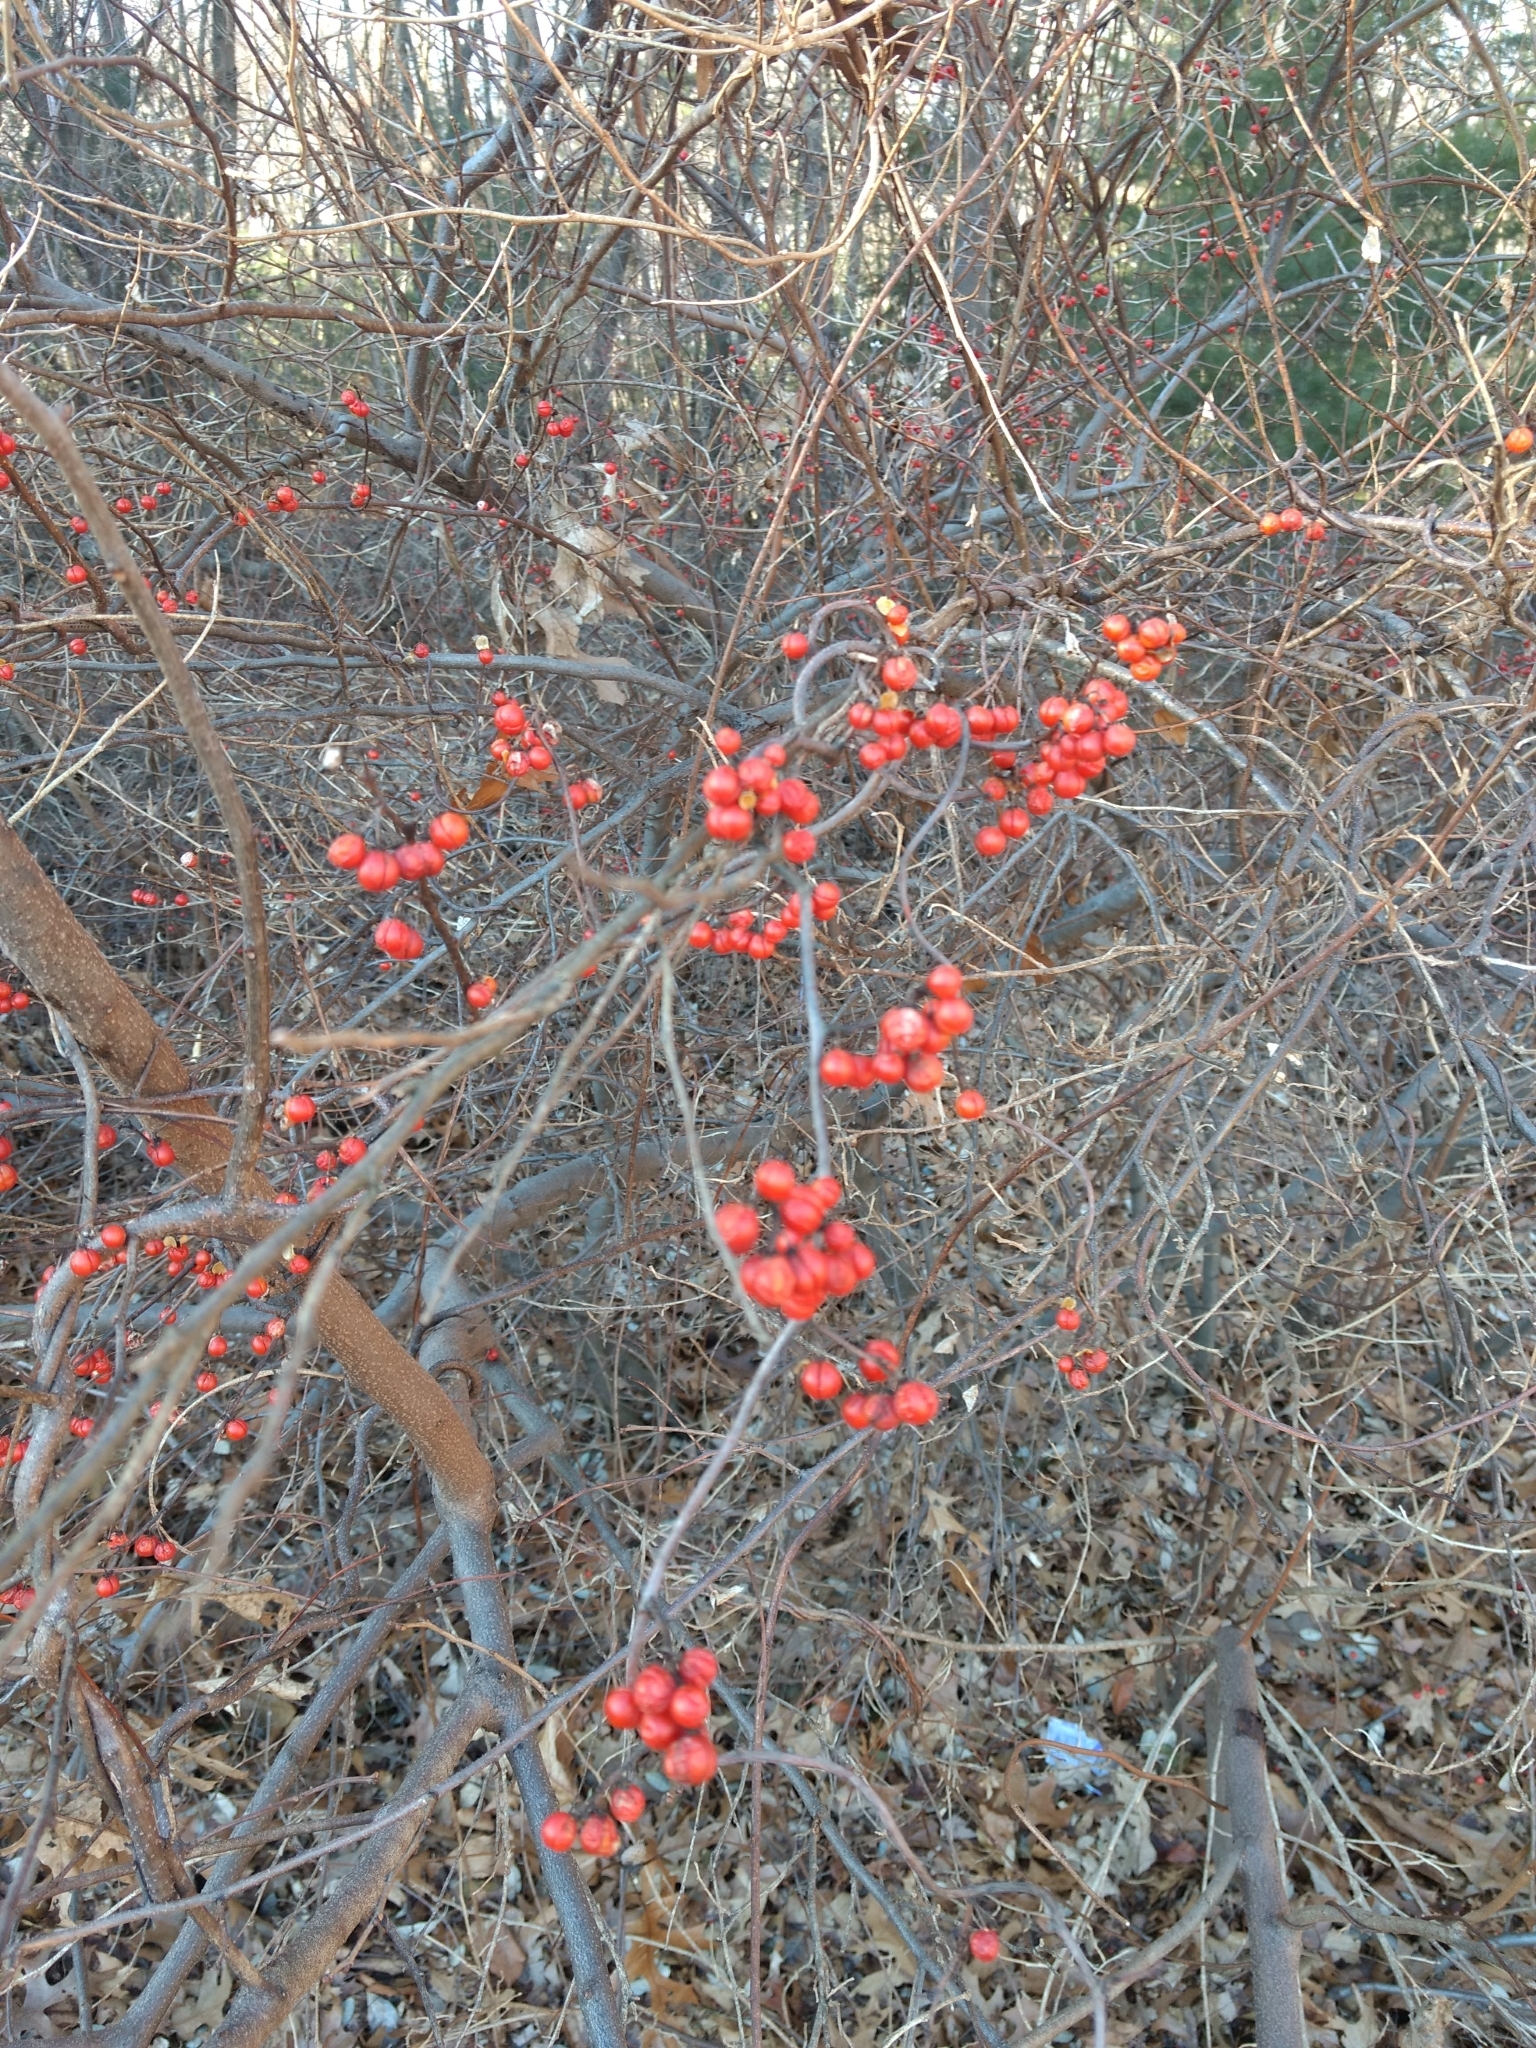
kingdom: Plantae
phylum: Tracheophyta
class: Magnoliopsida
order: Celastrales
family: Celastraceae
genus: Celastrus
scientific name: Celastrus orbiculatus
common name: Oriental bittersweet
